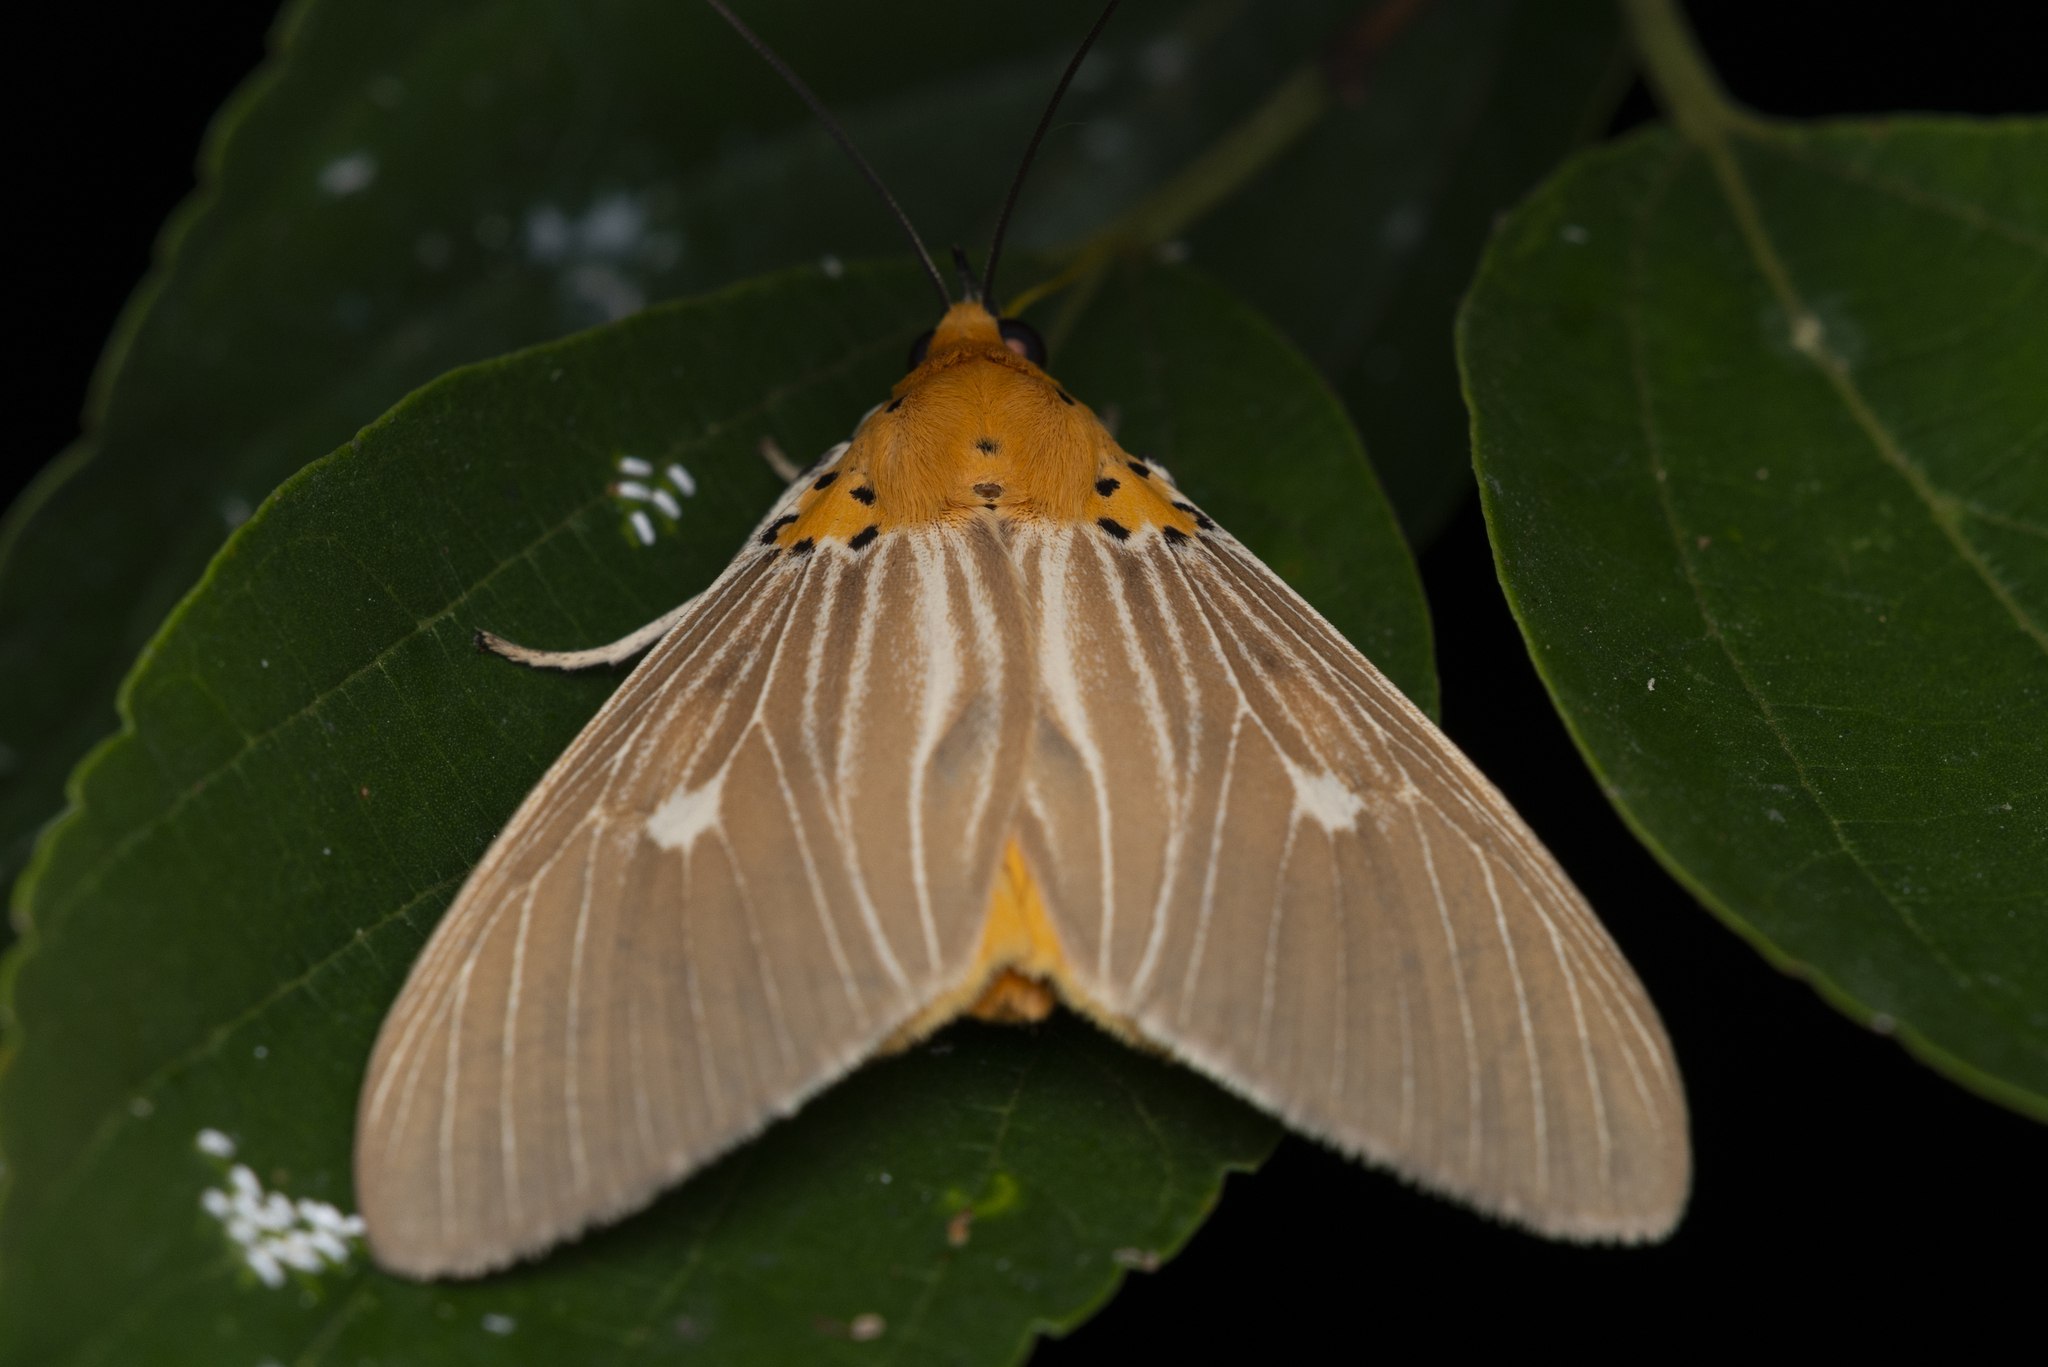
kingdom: Animalia
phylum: Arthropoda
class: Insecta
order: Lepidoptera
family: Erebidae
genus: Asota
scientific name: Asota plaginota
